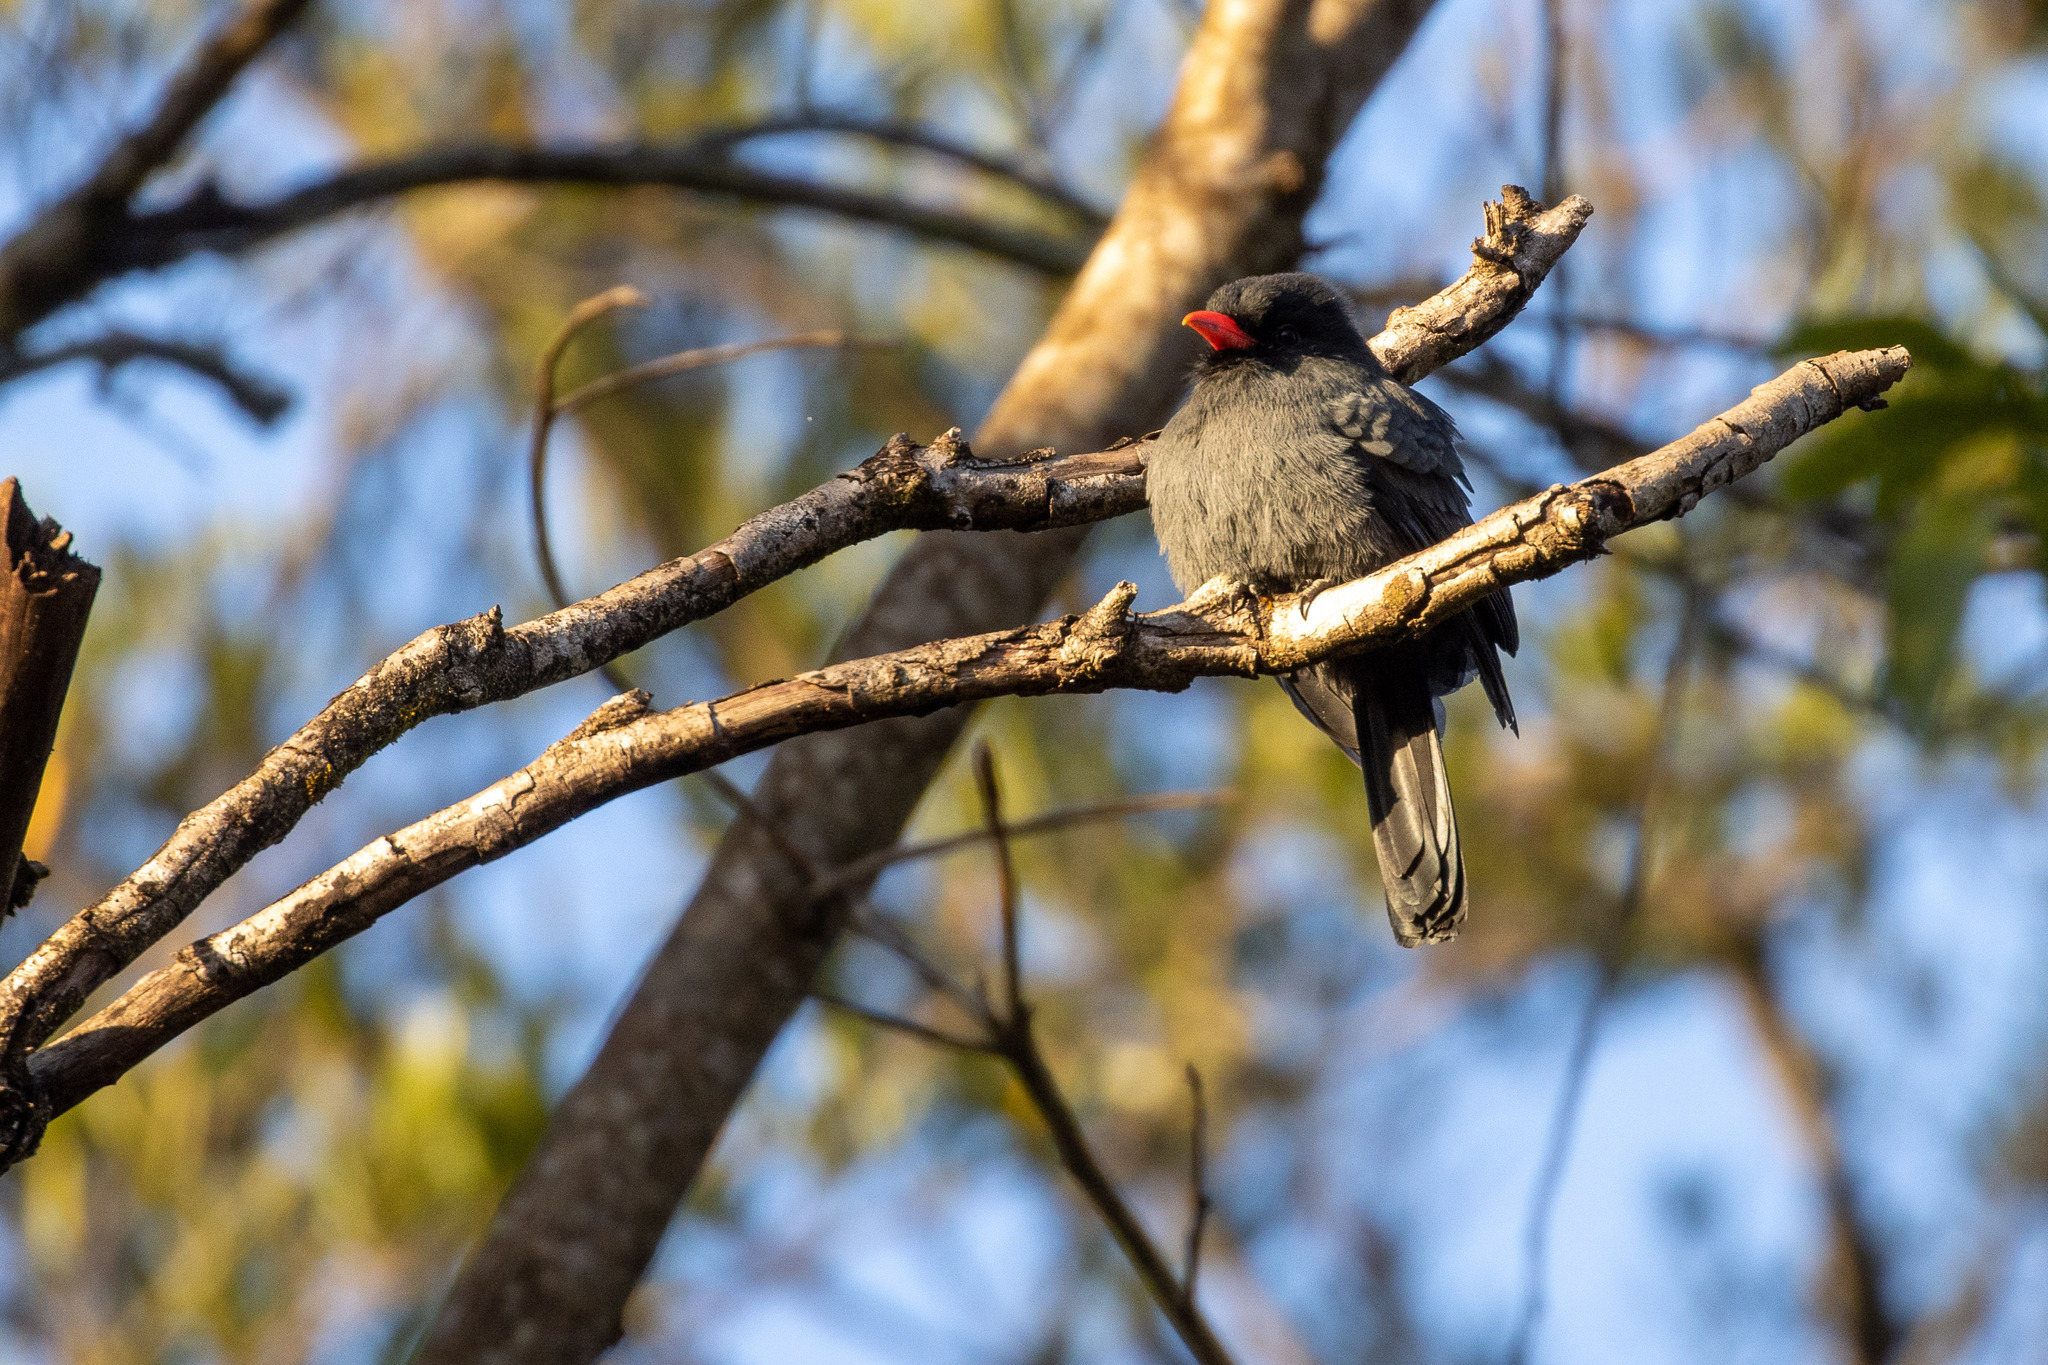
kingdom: Animalia
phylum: Chordata
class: Aves
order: Piciformes
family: Bucconidae
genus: Monasa
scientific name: Monasa nigrifrons
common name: Black-fronted nunbird
